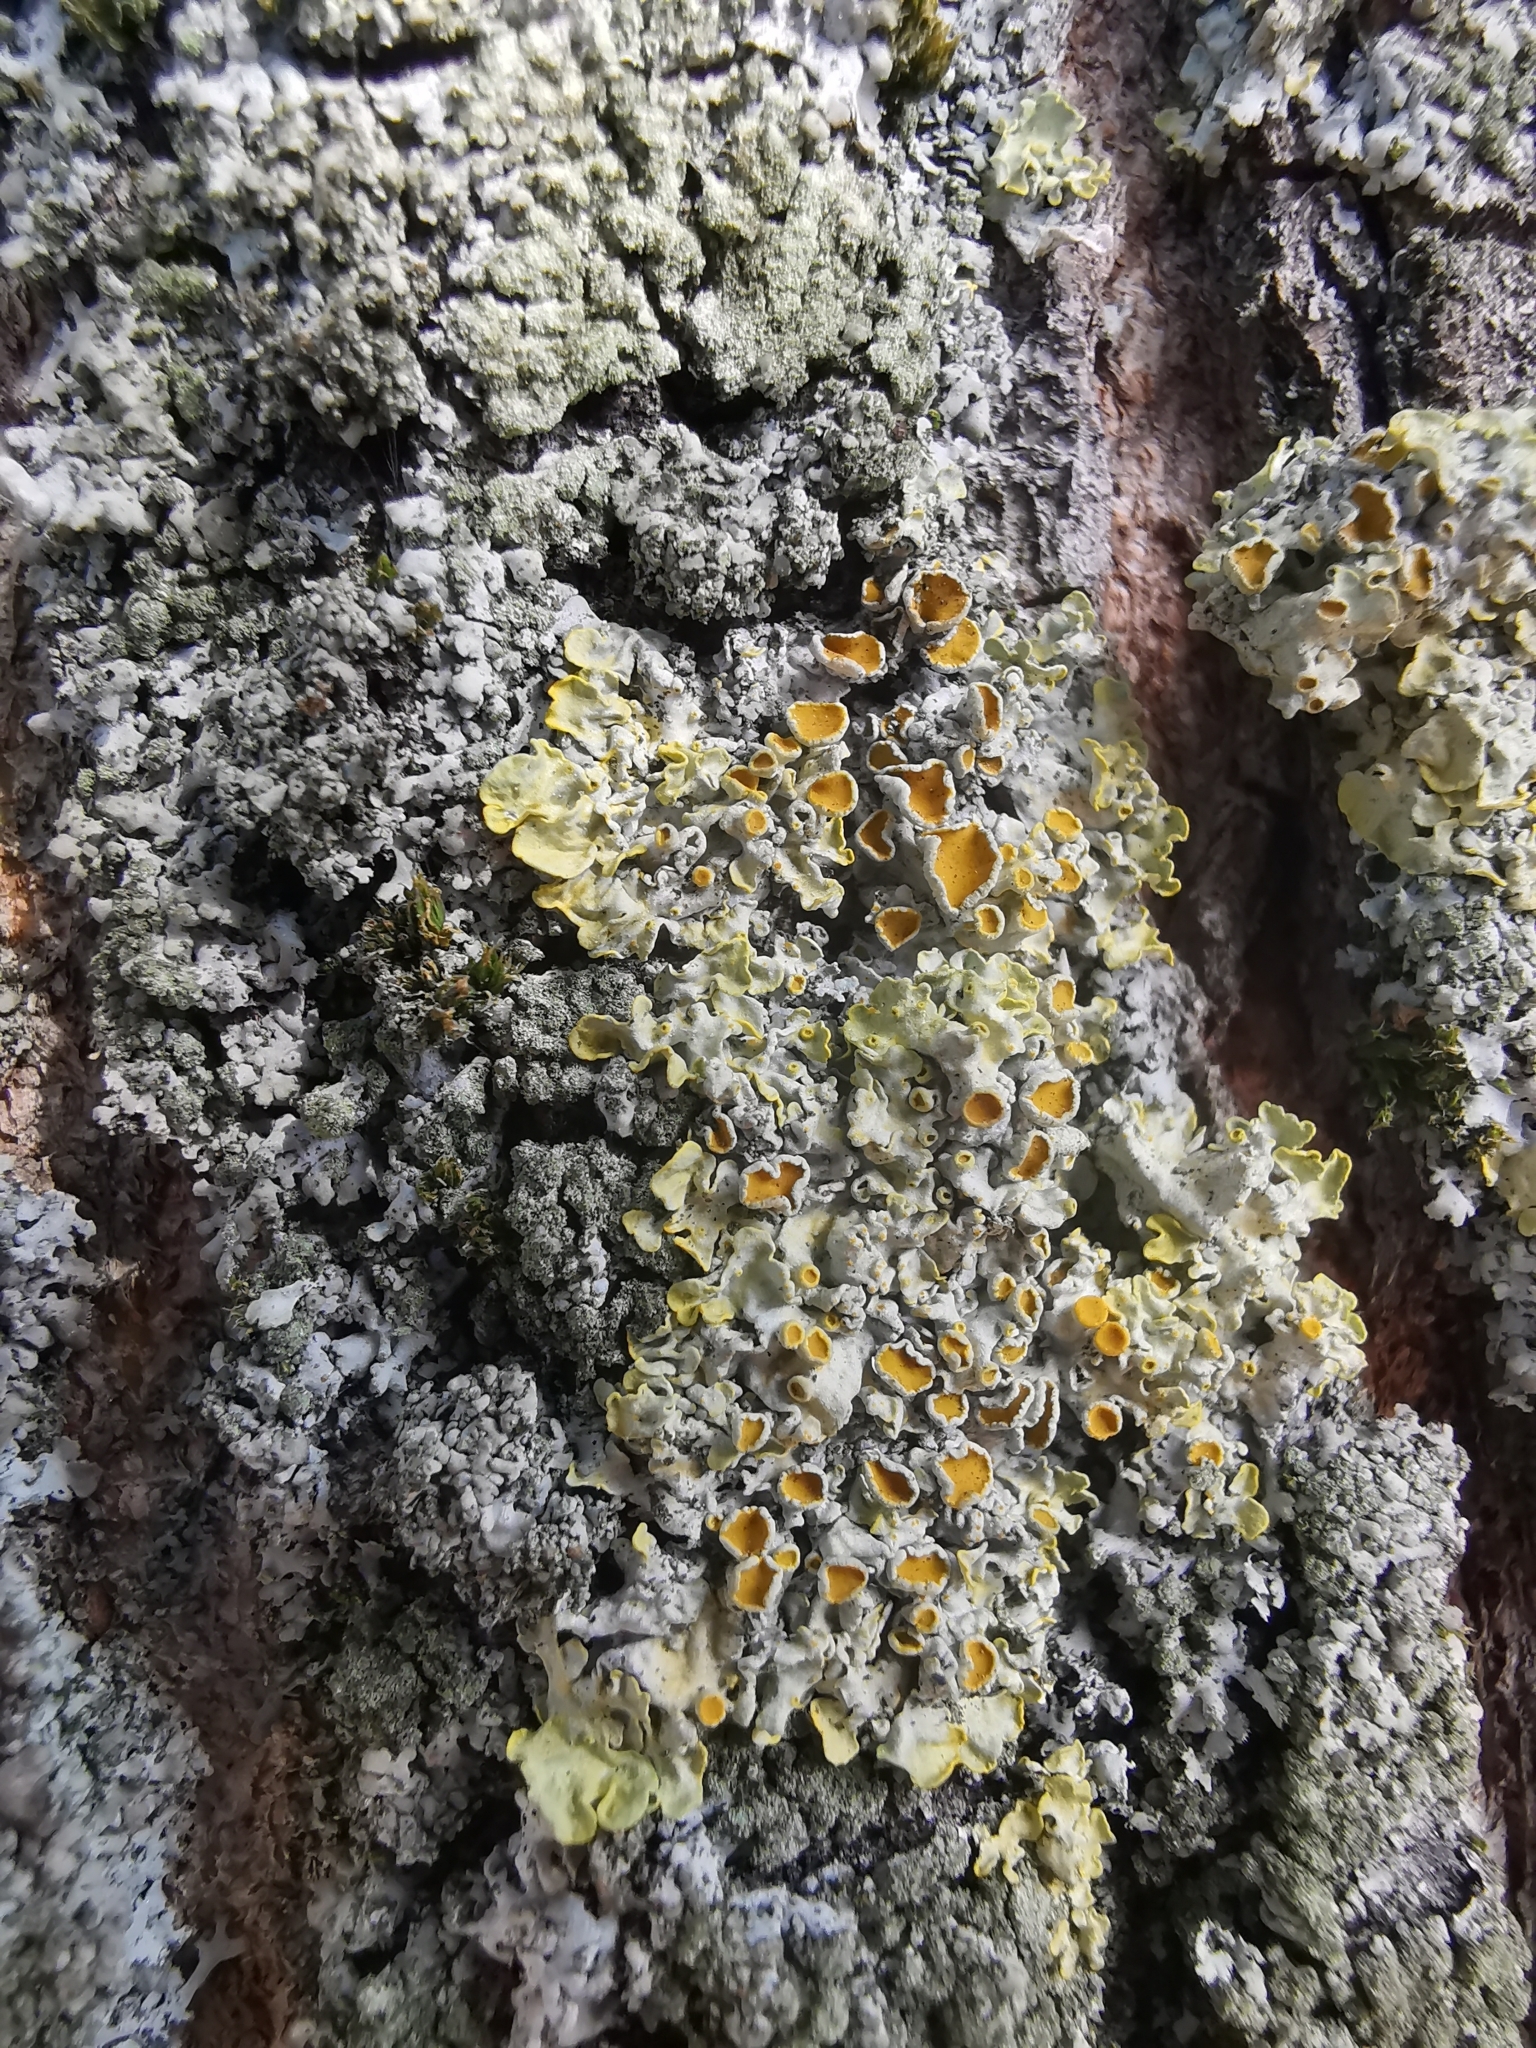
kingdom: Fungi
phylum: Ascomycota
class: Lecanoromycetes
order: Teloschistales
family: Teloschistaceae
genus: Xanthoria
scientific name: Xanthoria parietina
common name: Common orange lichen
